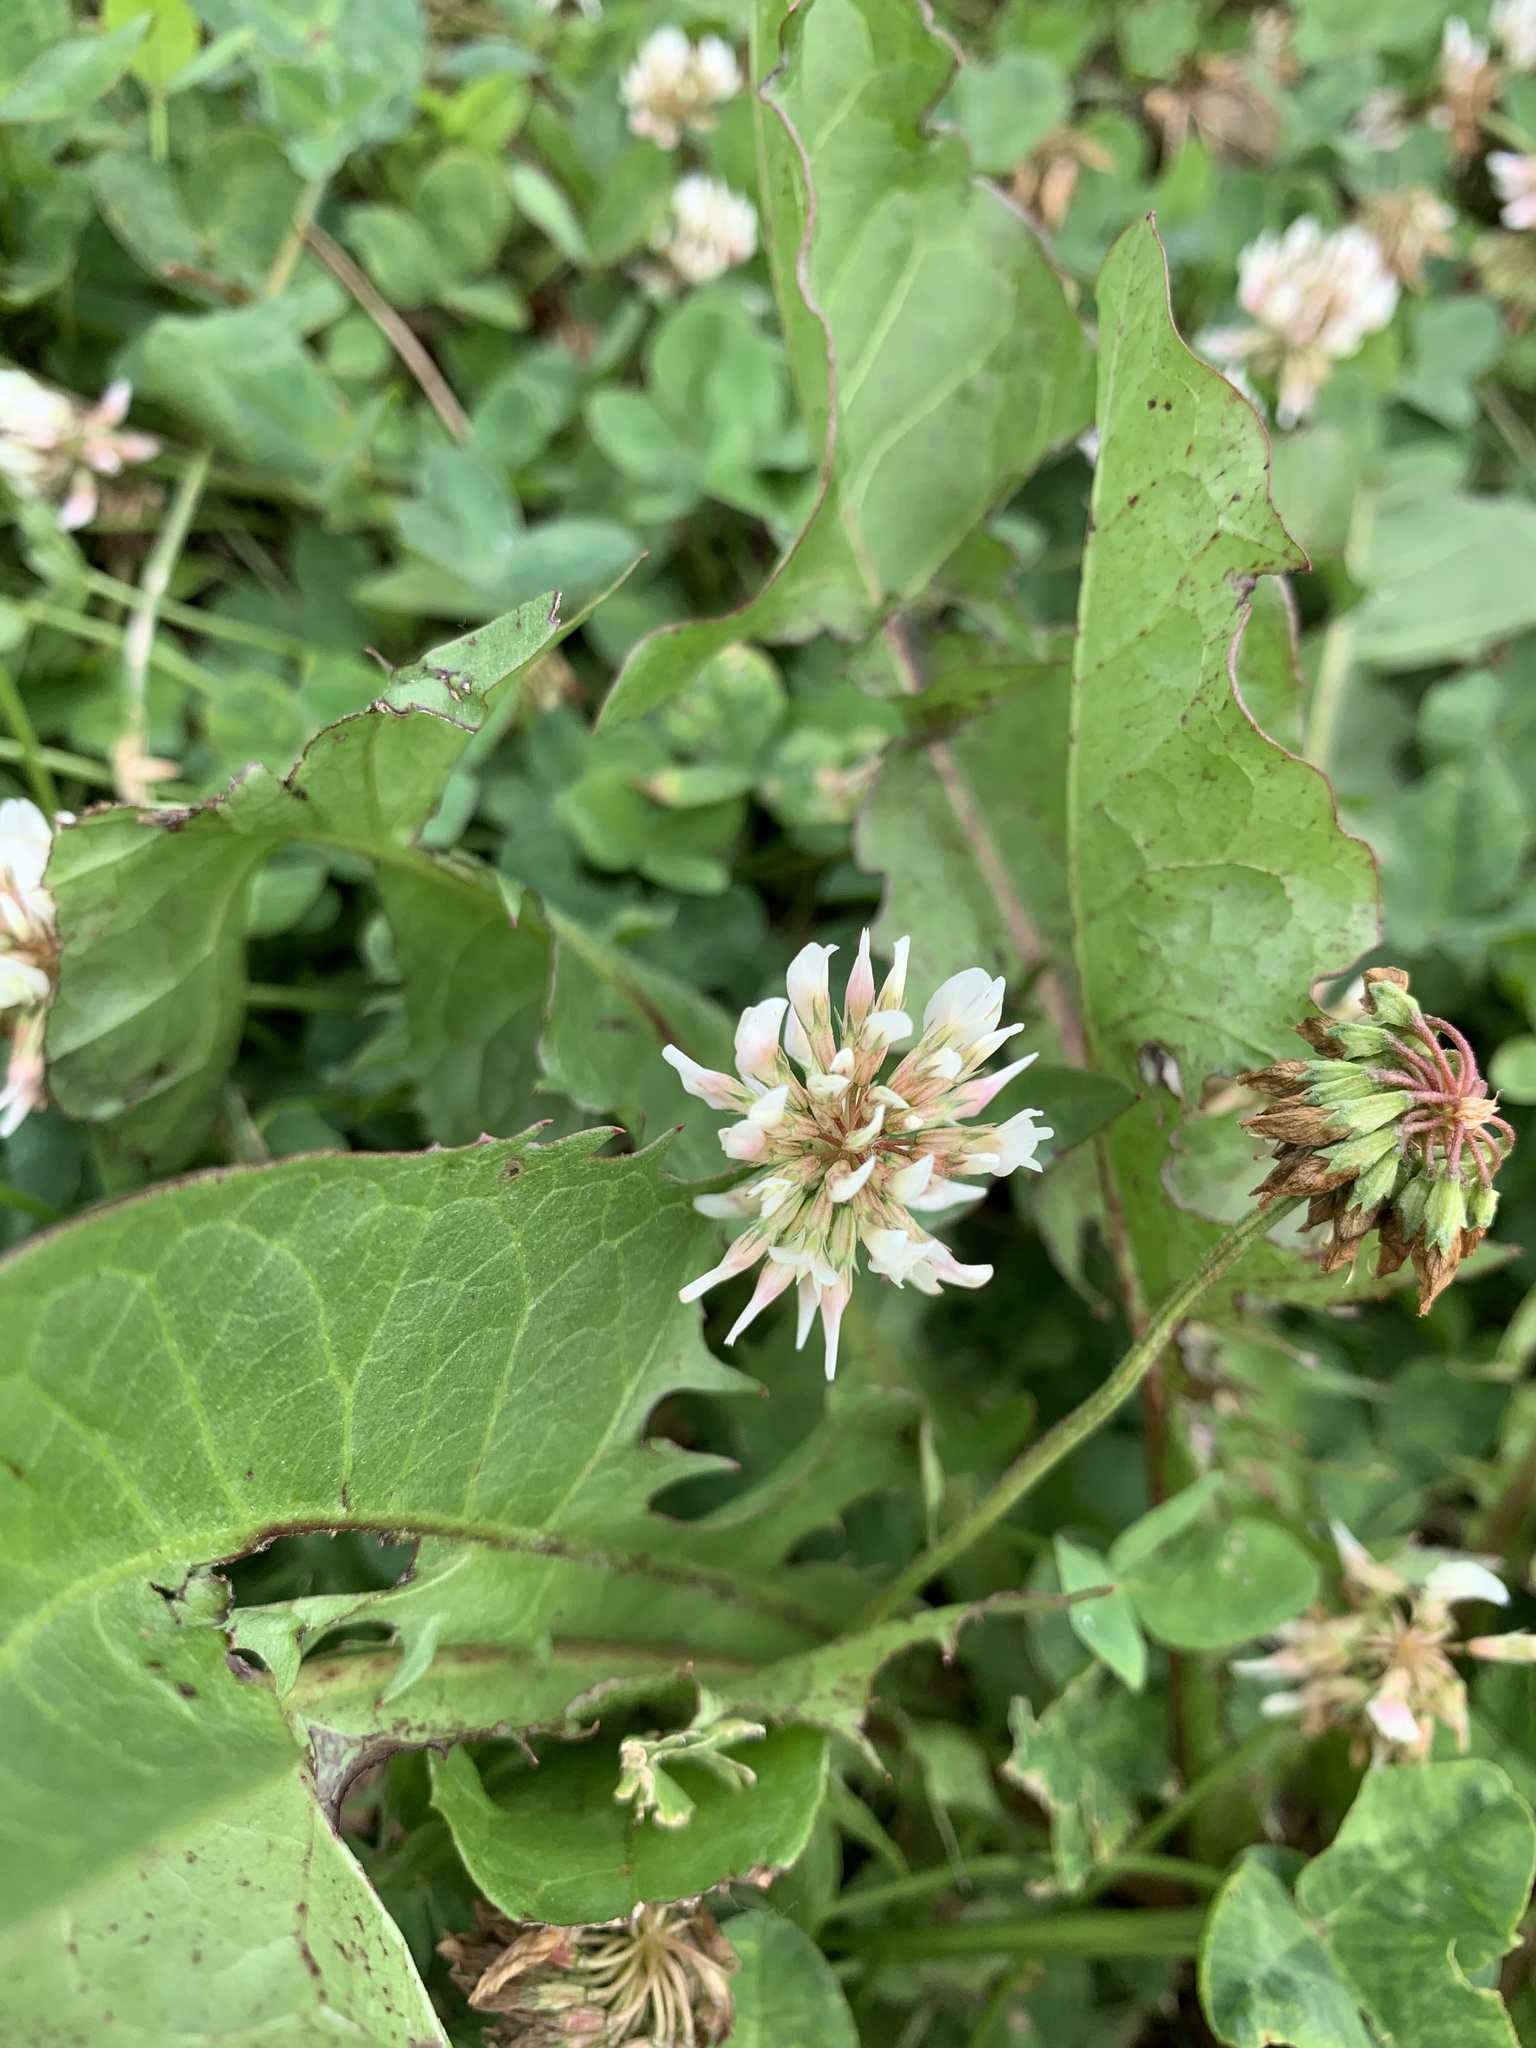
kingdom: Plantae
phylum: Tracheophyta
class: Magnoliopsida
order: Fabales
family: Fabaceae
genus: Trifolium
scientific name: Trifolium repens
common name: White clover
